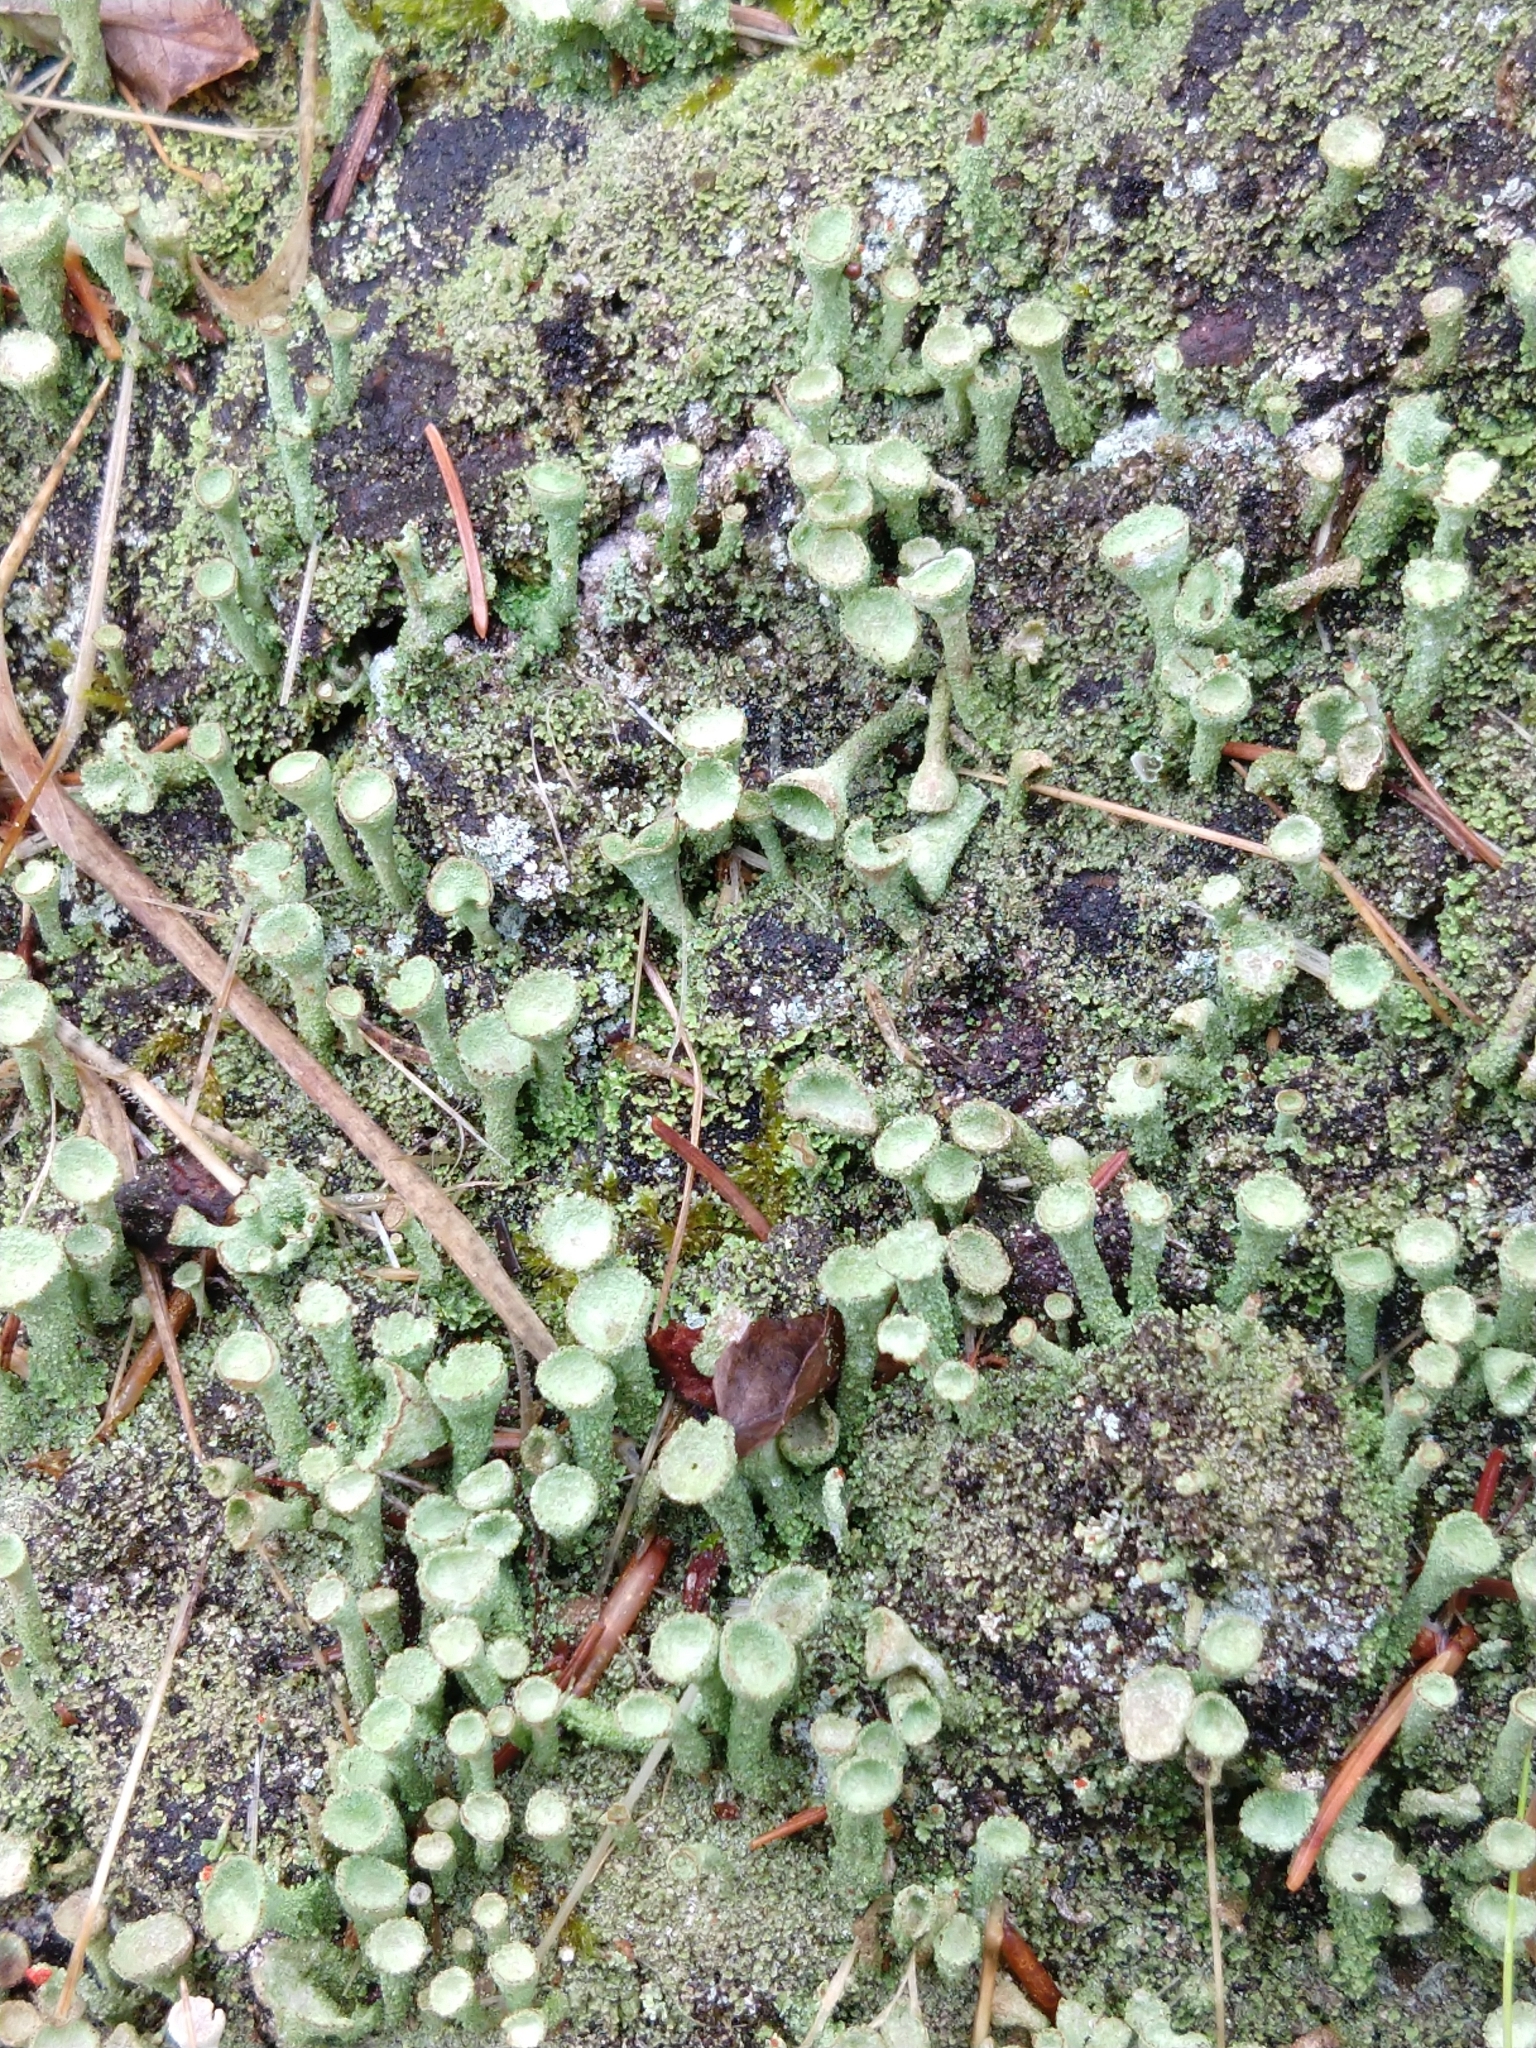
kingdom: Fungi
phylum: Ascomycota
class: Lecanoromycetes
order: Lecanorales
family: Cladoniaceae
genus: Cladonia
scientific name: Cladonia
